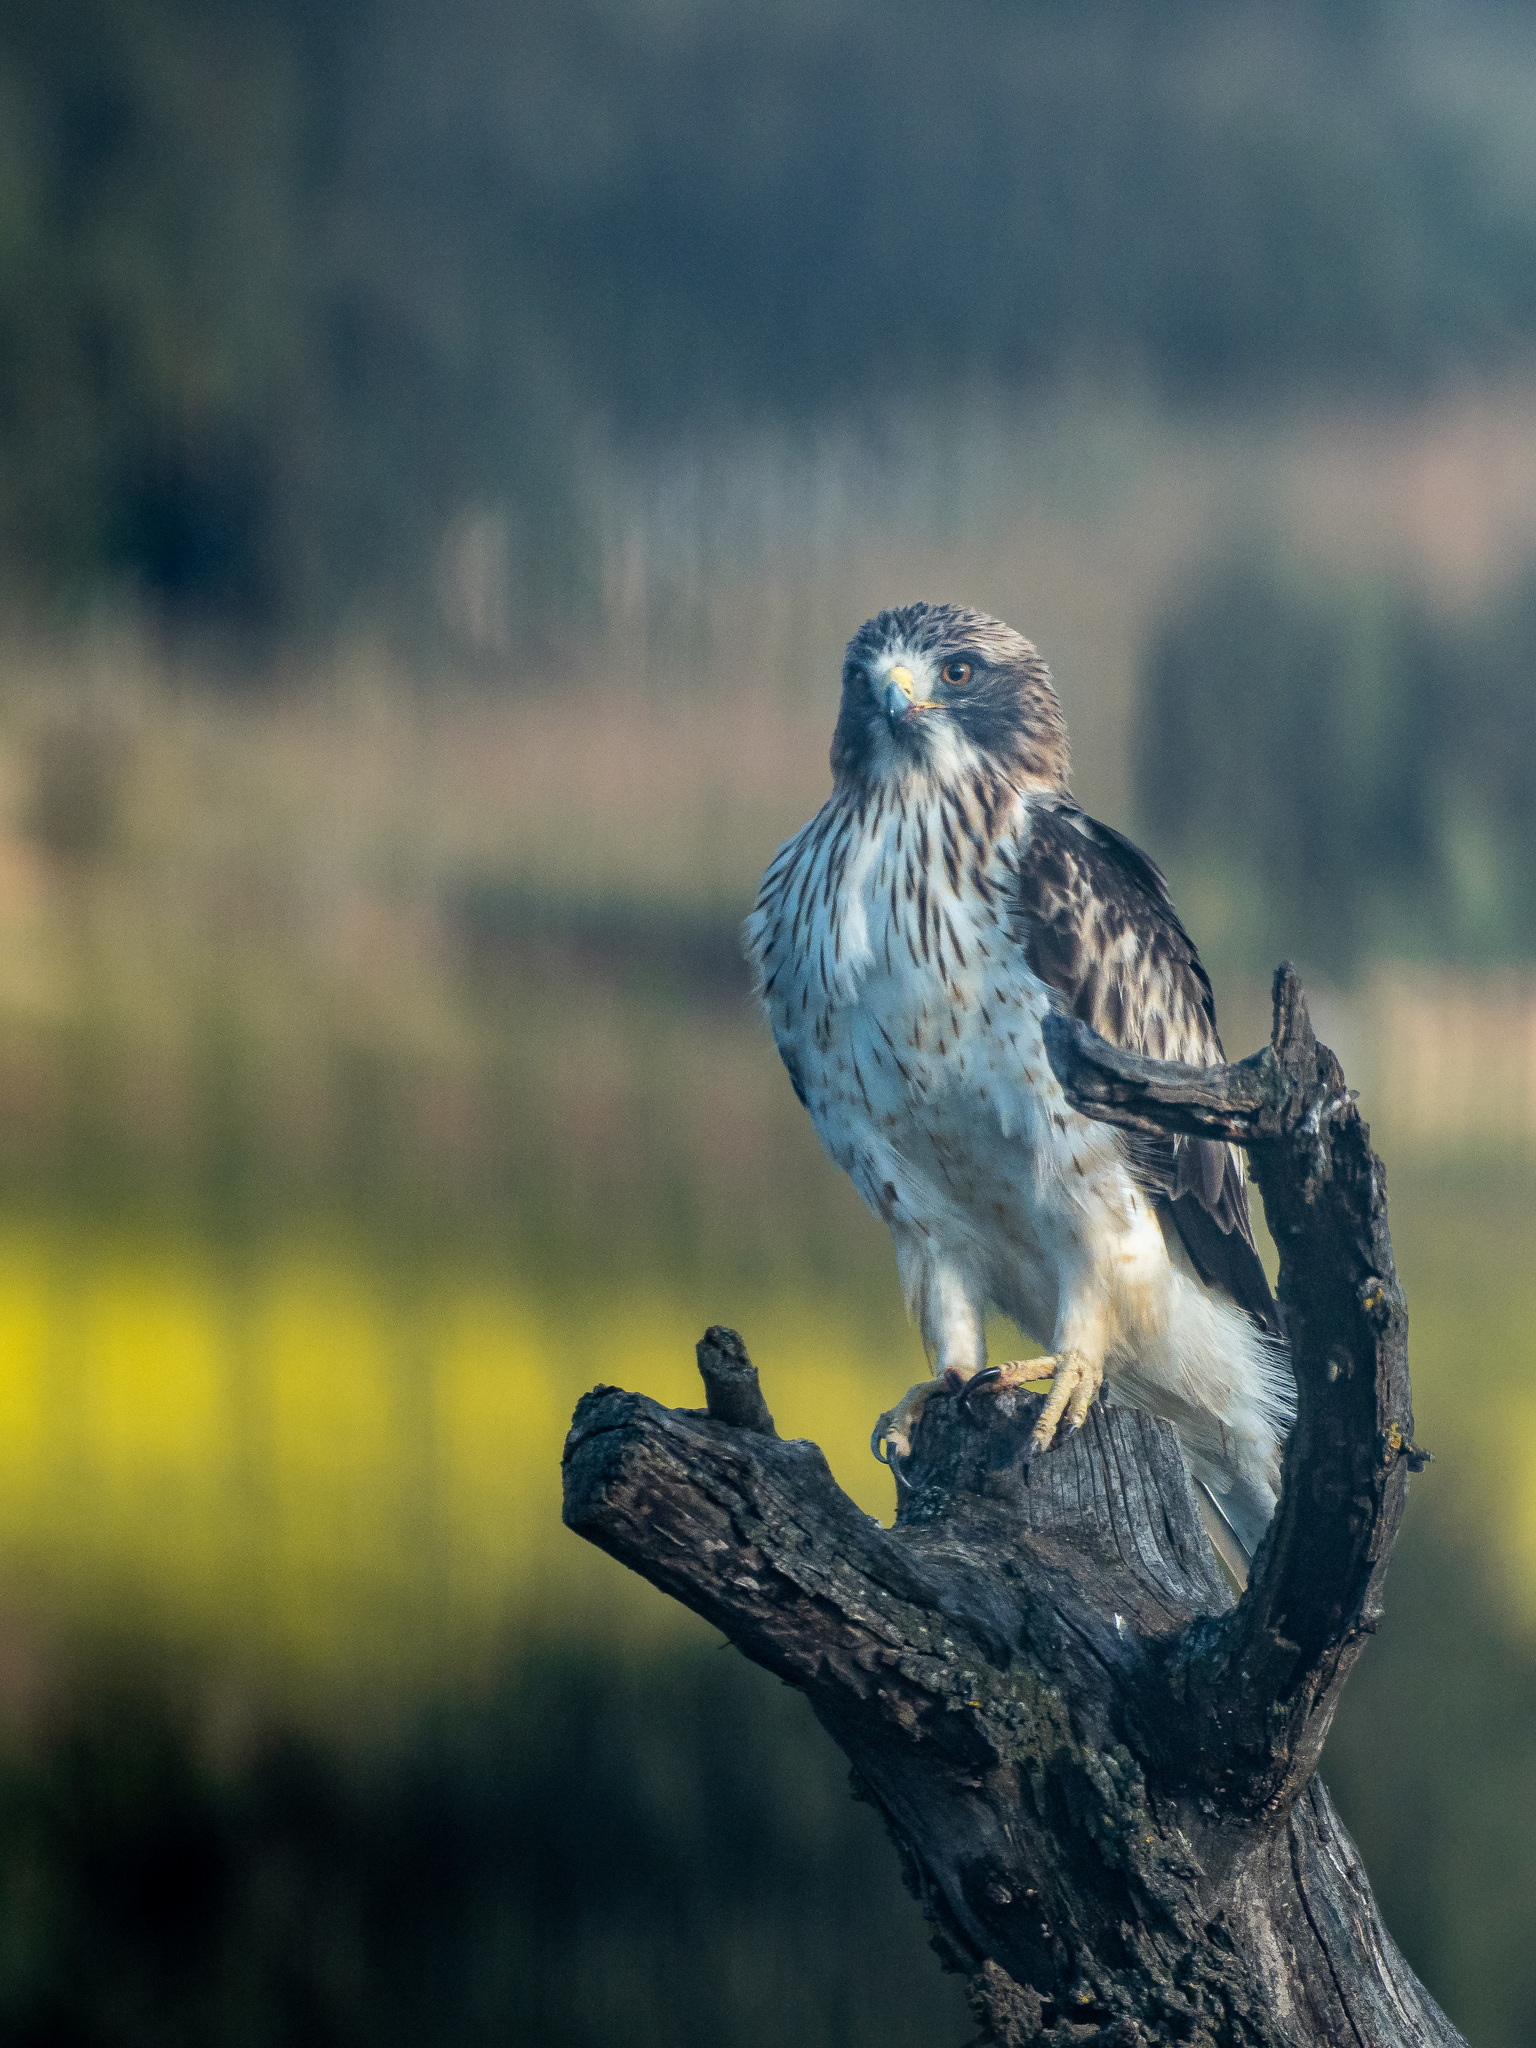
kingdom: Animalia
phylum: Chordata
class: Aves
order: Accipitriformes
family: Accipitridae
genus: Hieraaetus
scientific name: Hieraaetus pennatus
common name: Booted eagle
